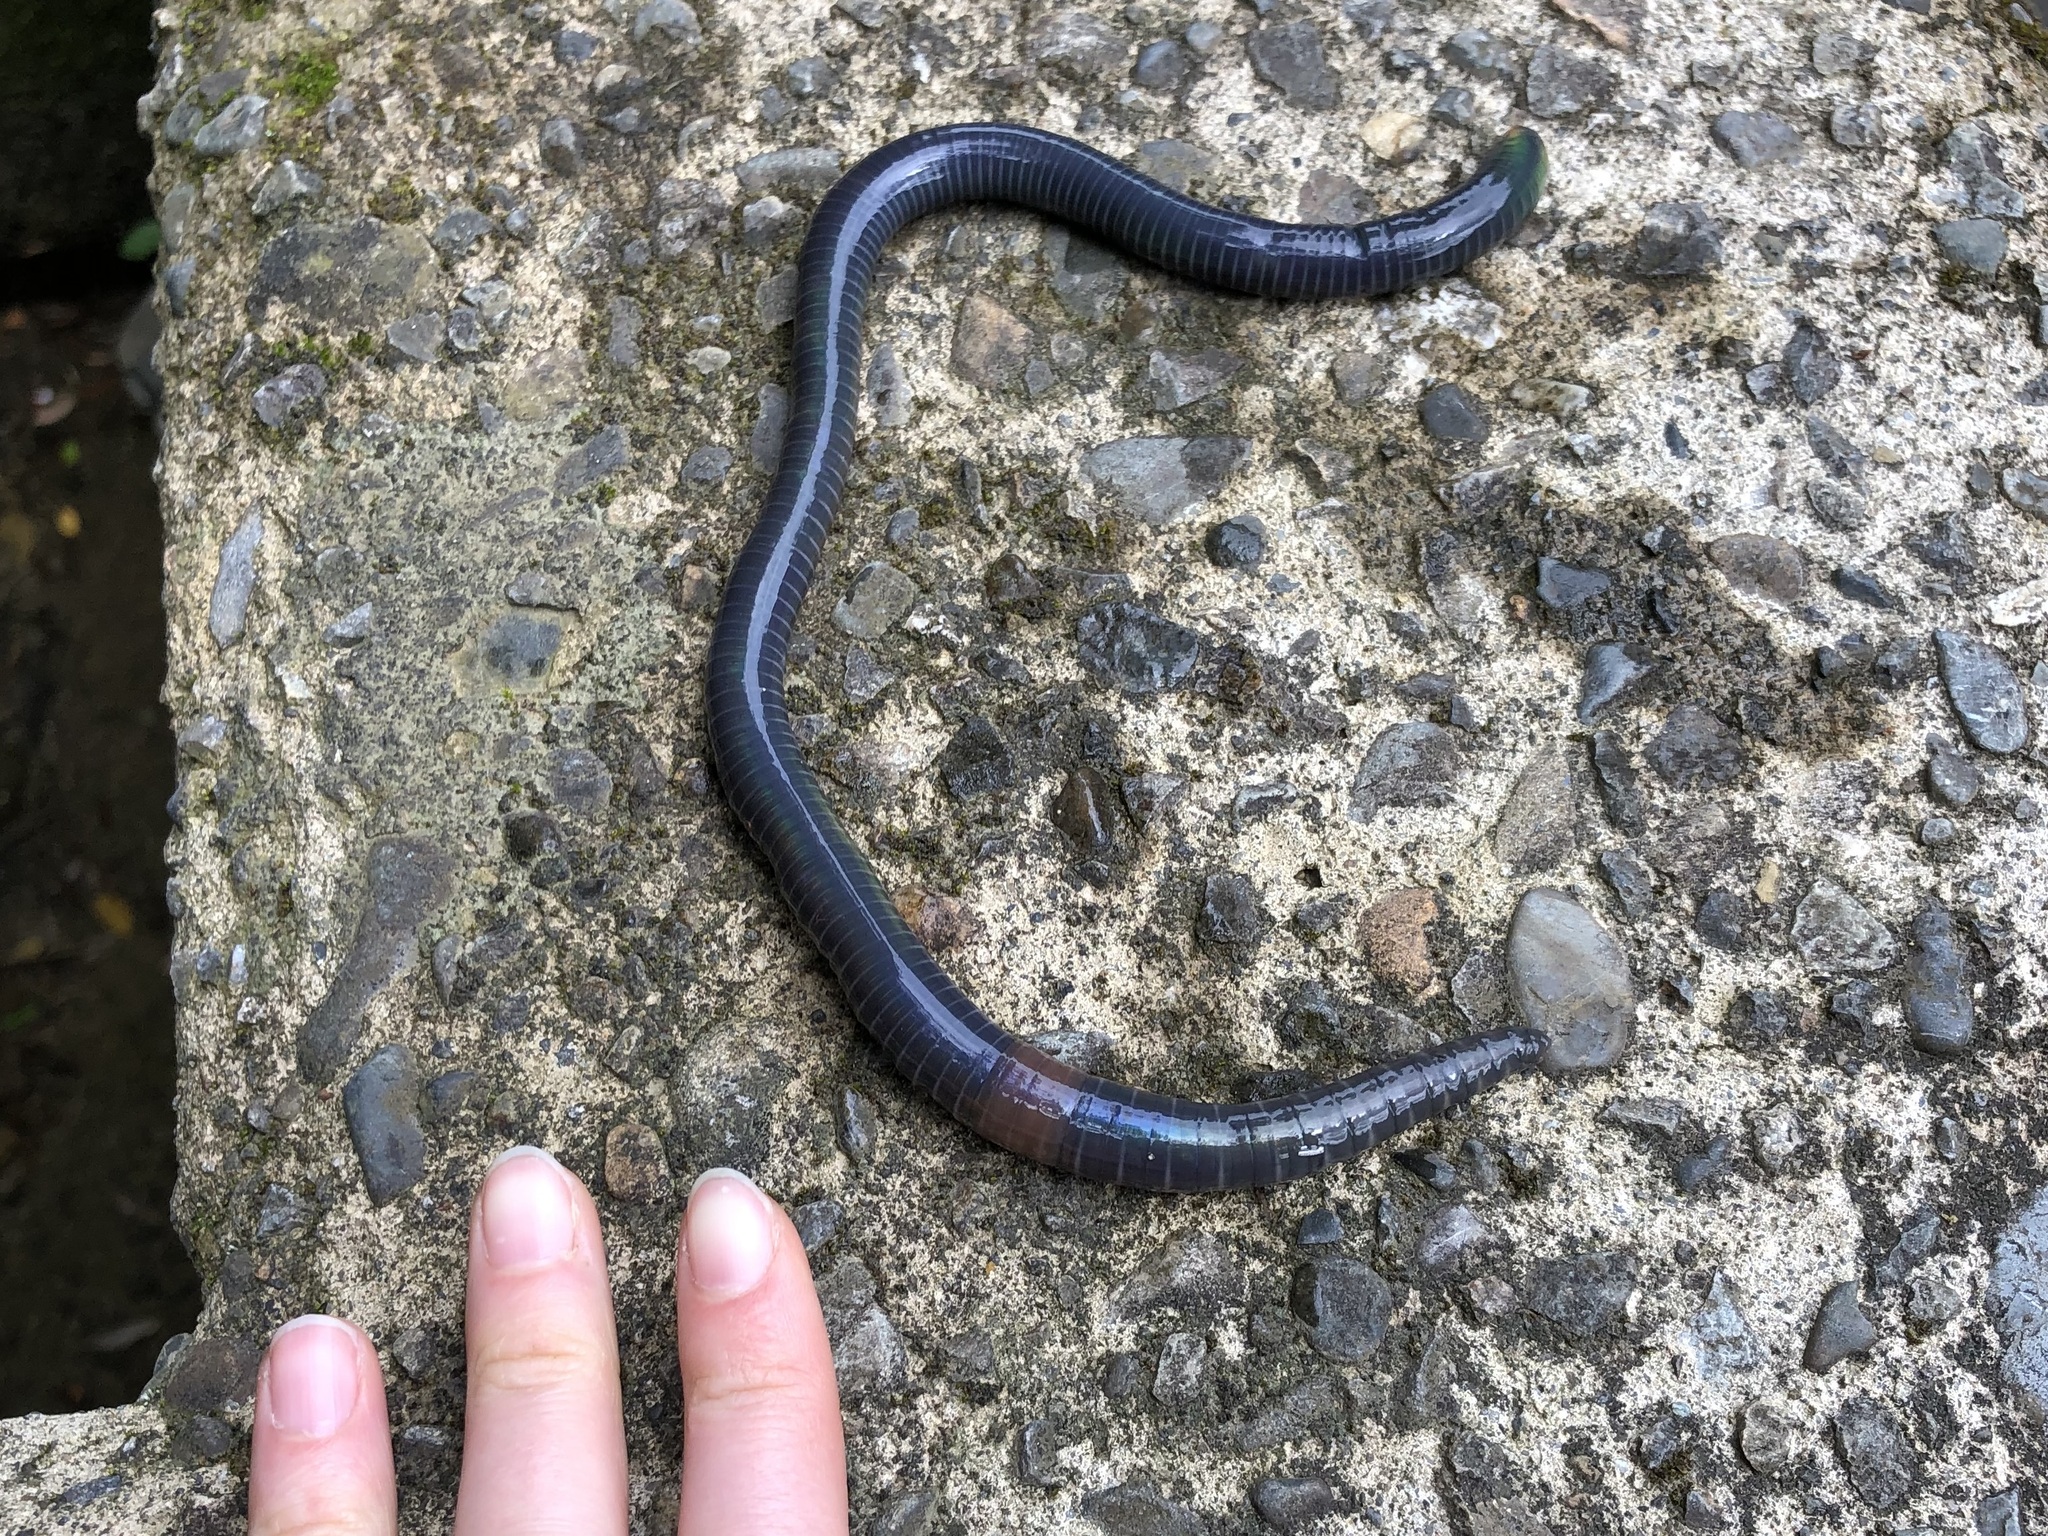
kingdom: Animalia
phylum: Annelida
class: Clitellata
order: Crassiclitellata
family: Megascolecidae
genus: Pheretima
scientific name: Pheretima
